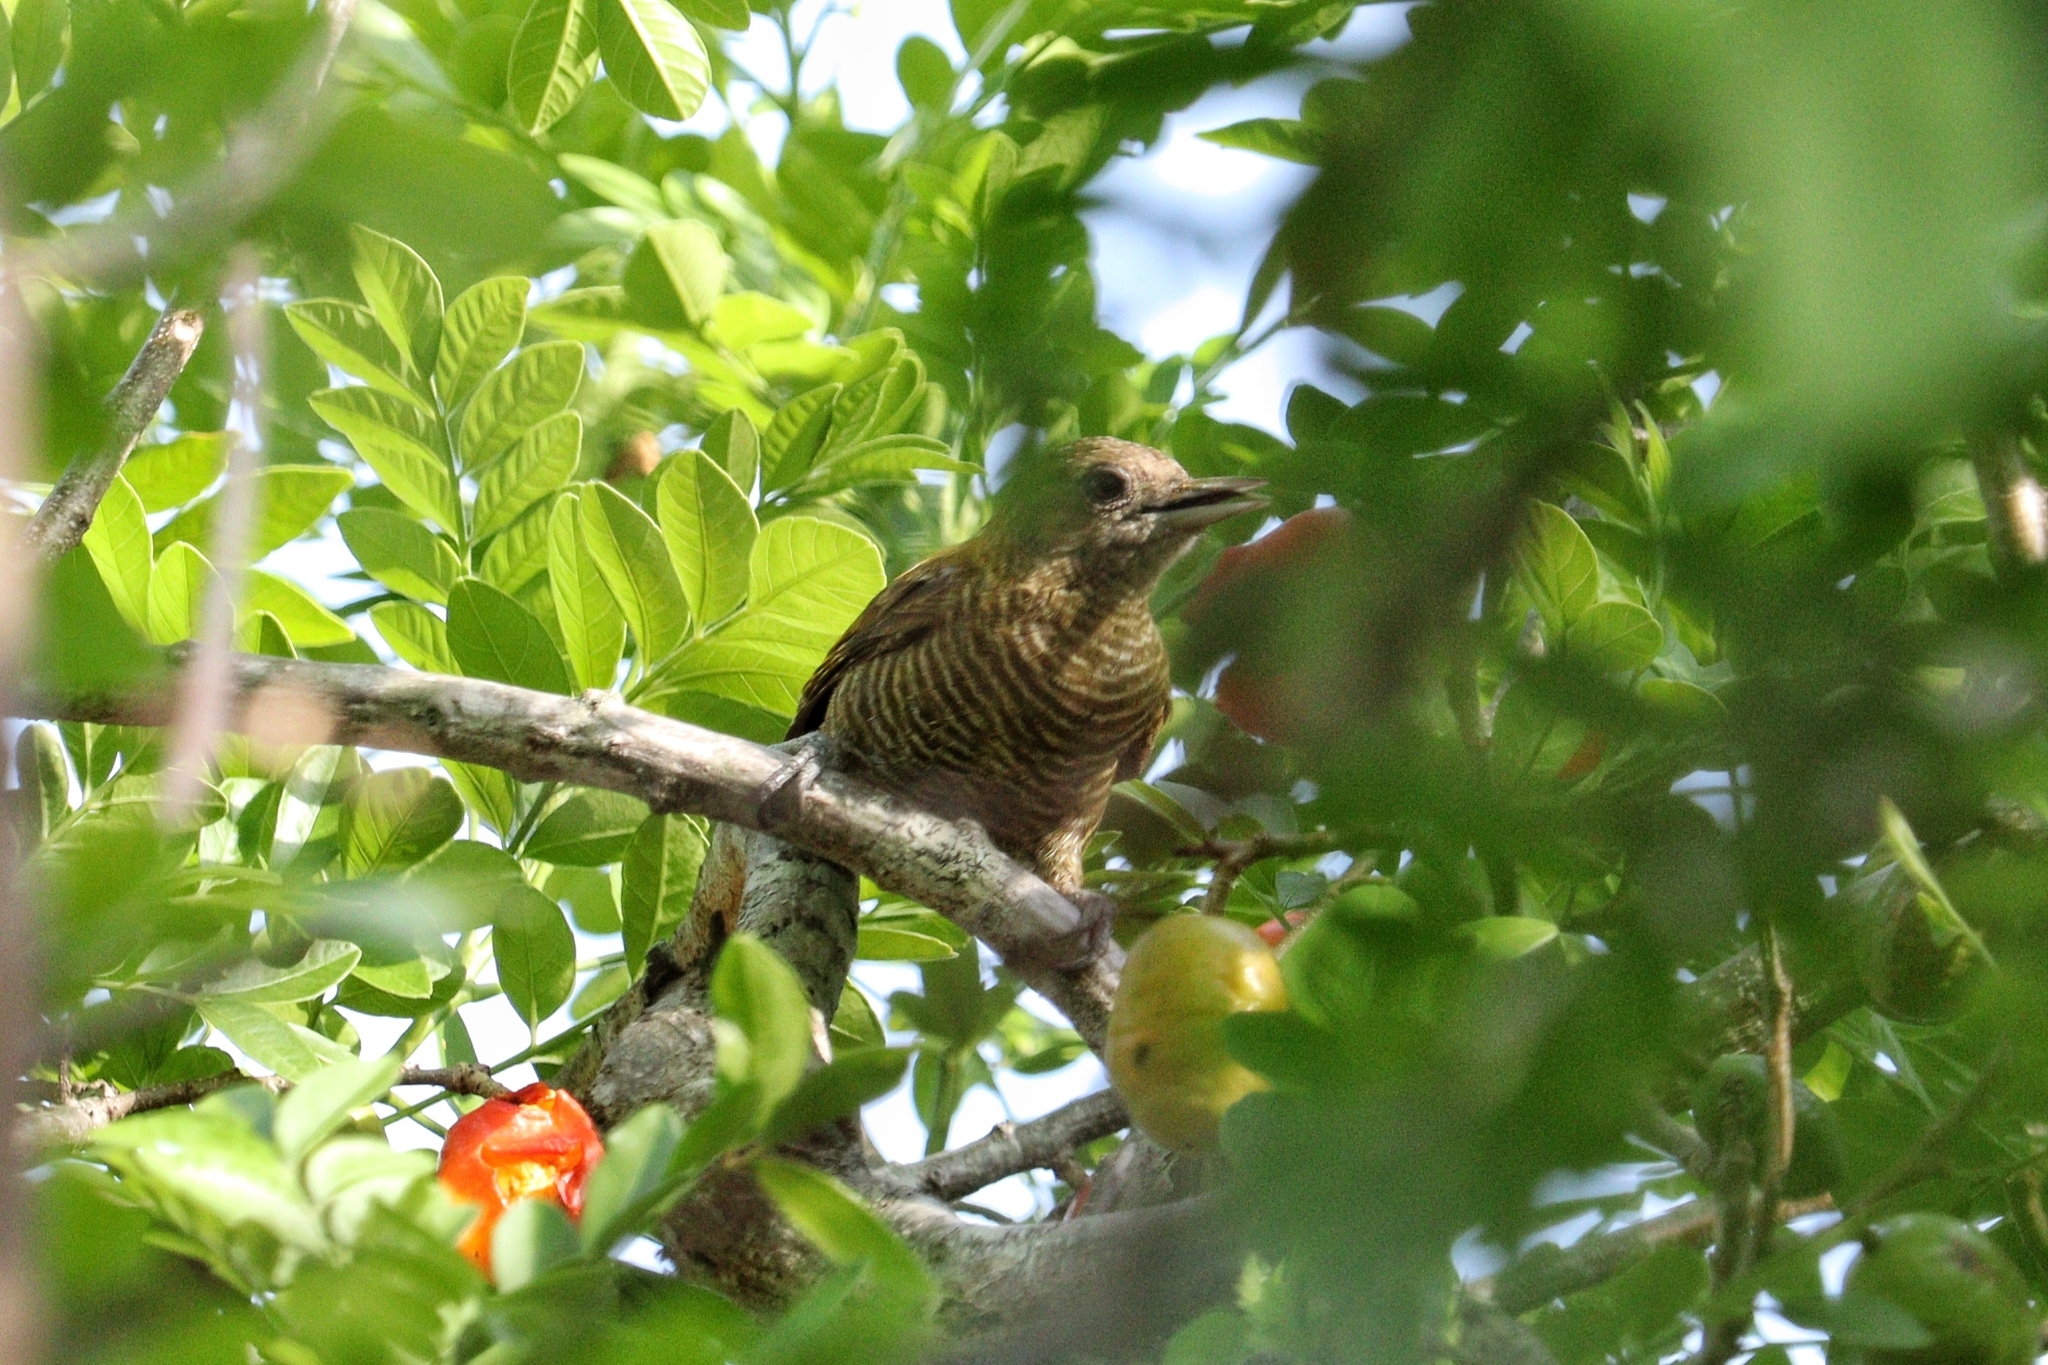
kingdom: Animalia
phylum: Chordata
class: Aves
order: Piciformes
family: Picidae
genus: Veniliornis
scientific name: Veniliornis passerinus
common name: Little woodpecker
